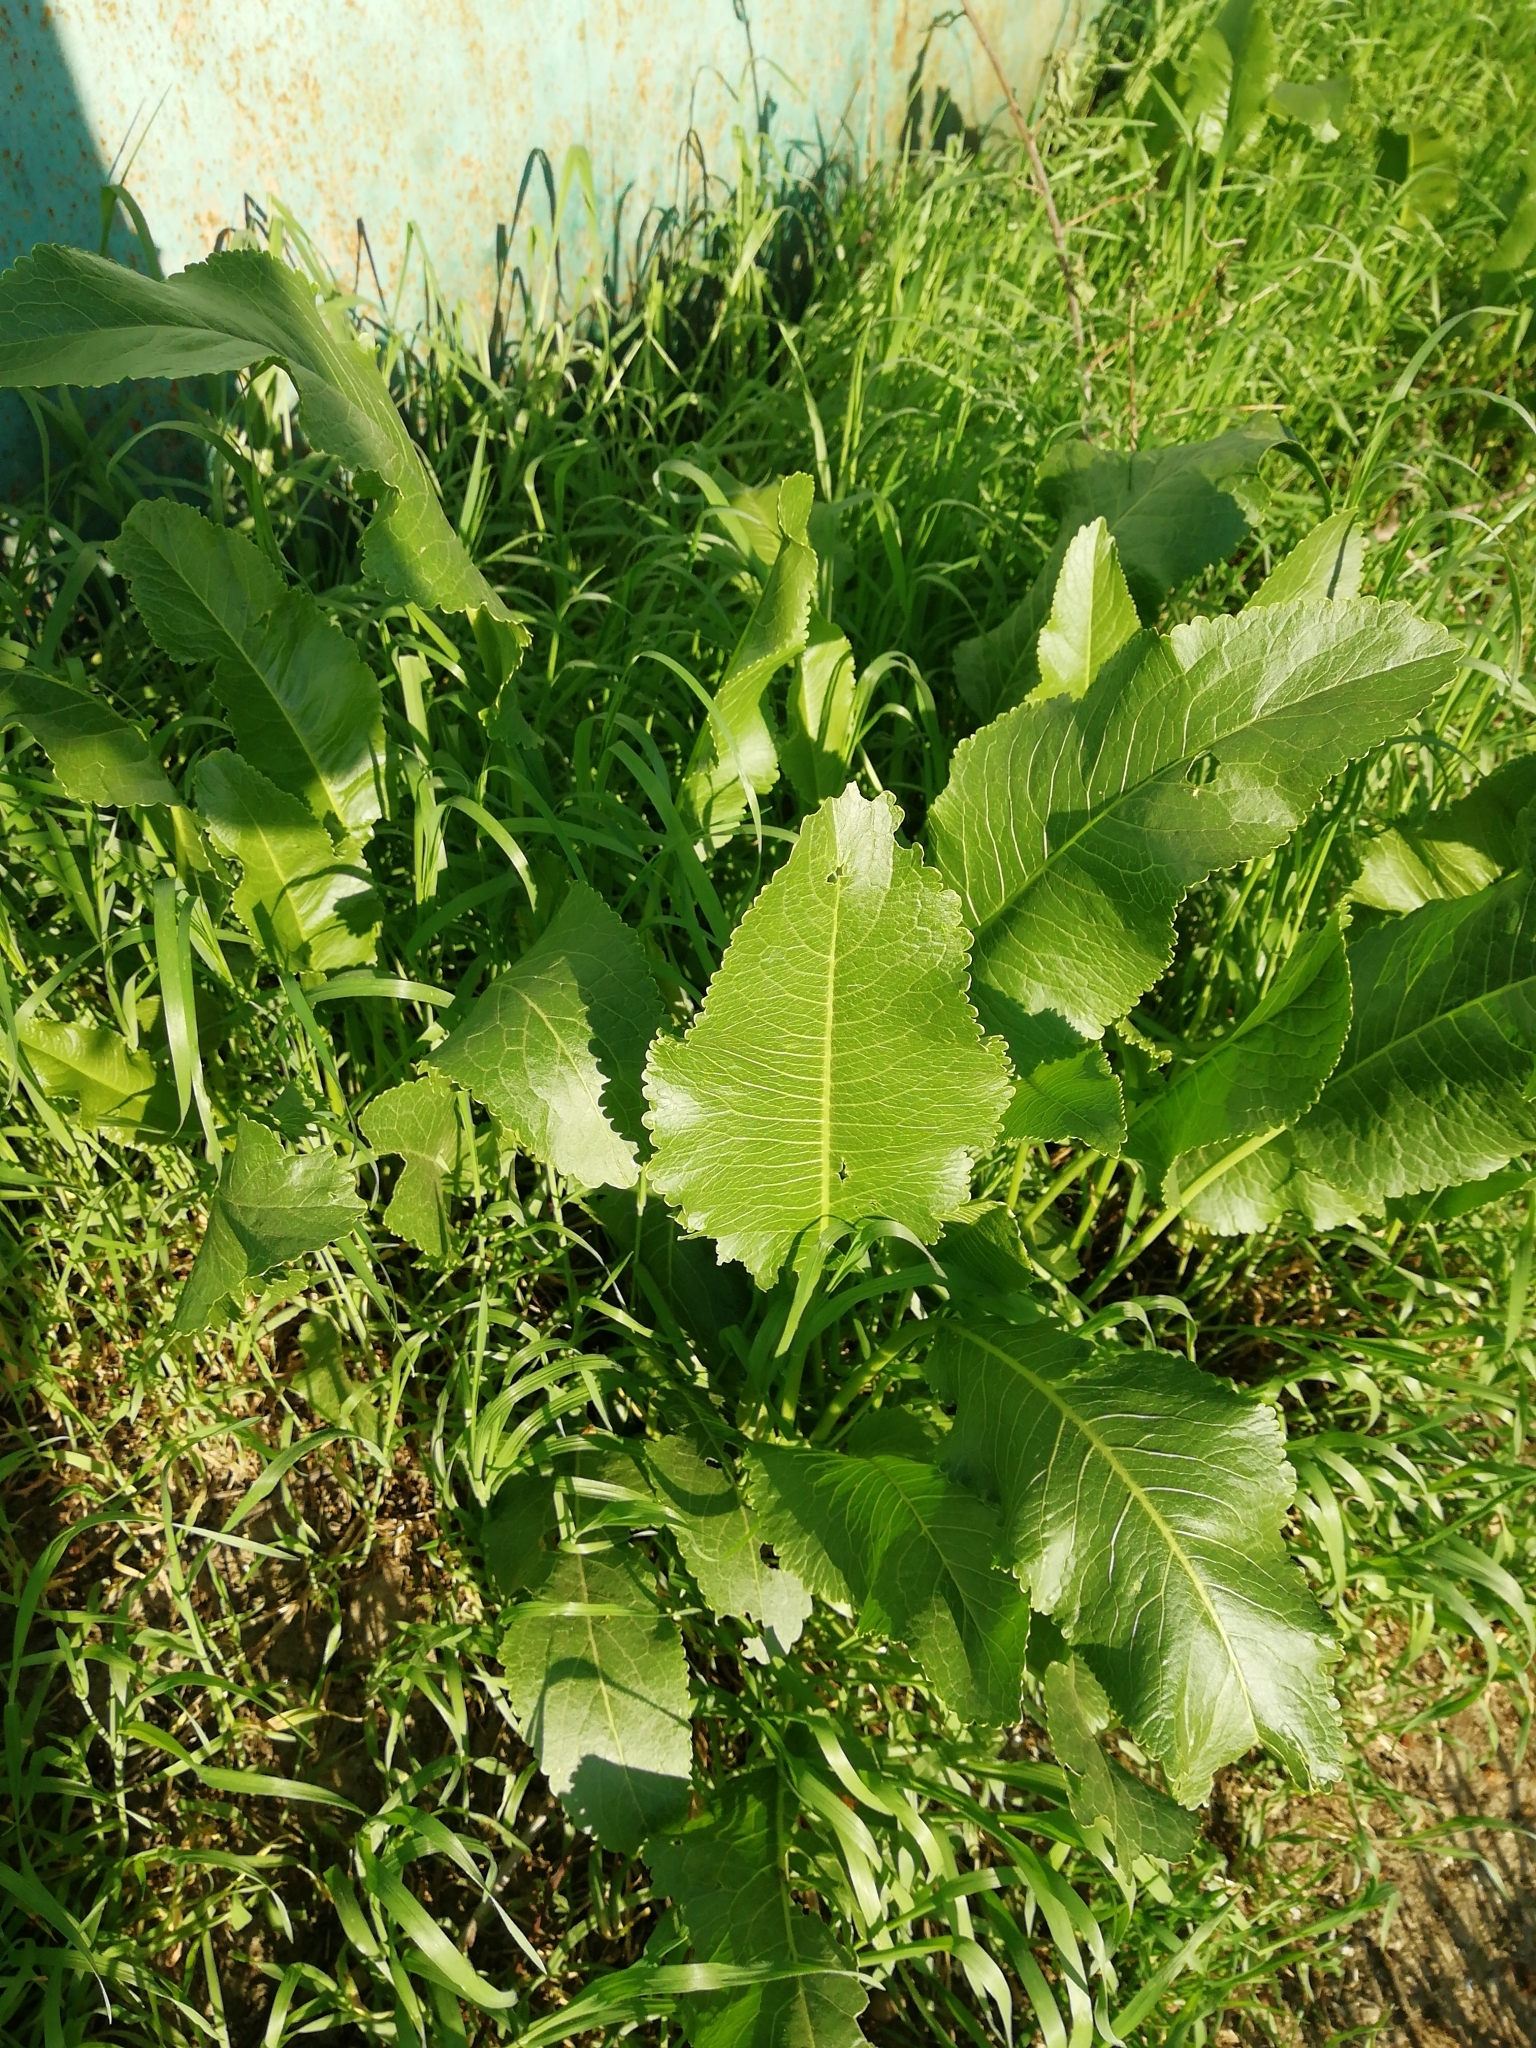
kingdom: Plantae
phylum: Tracheophyta
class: Magnoliopsida
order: Brassicales
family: Brassicaceae
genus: Armoracia
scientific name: Armoracia rusticana
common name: Horseradish
